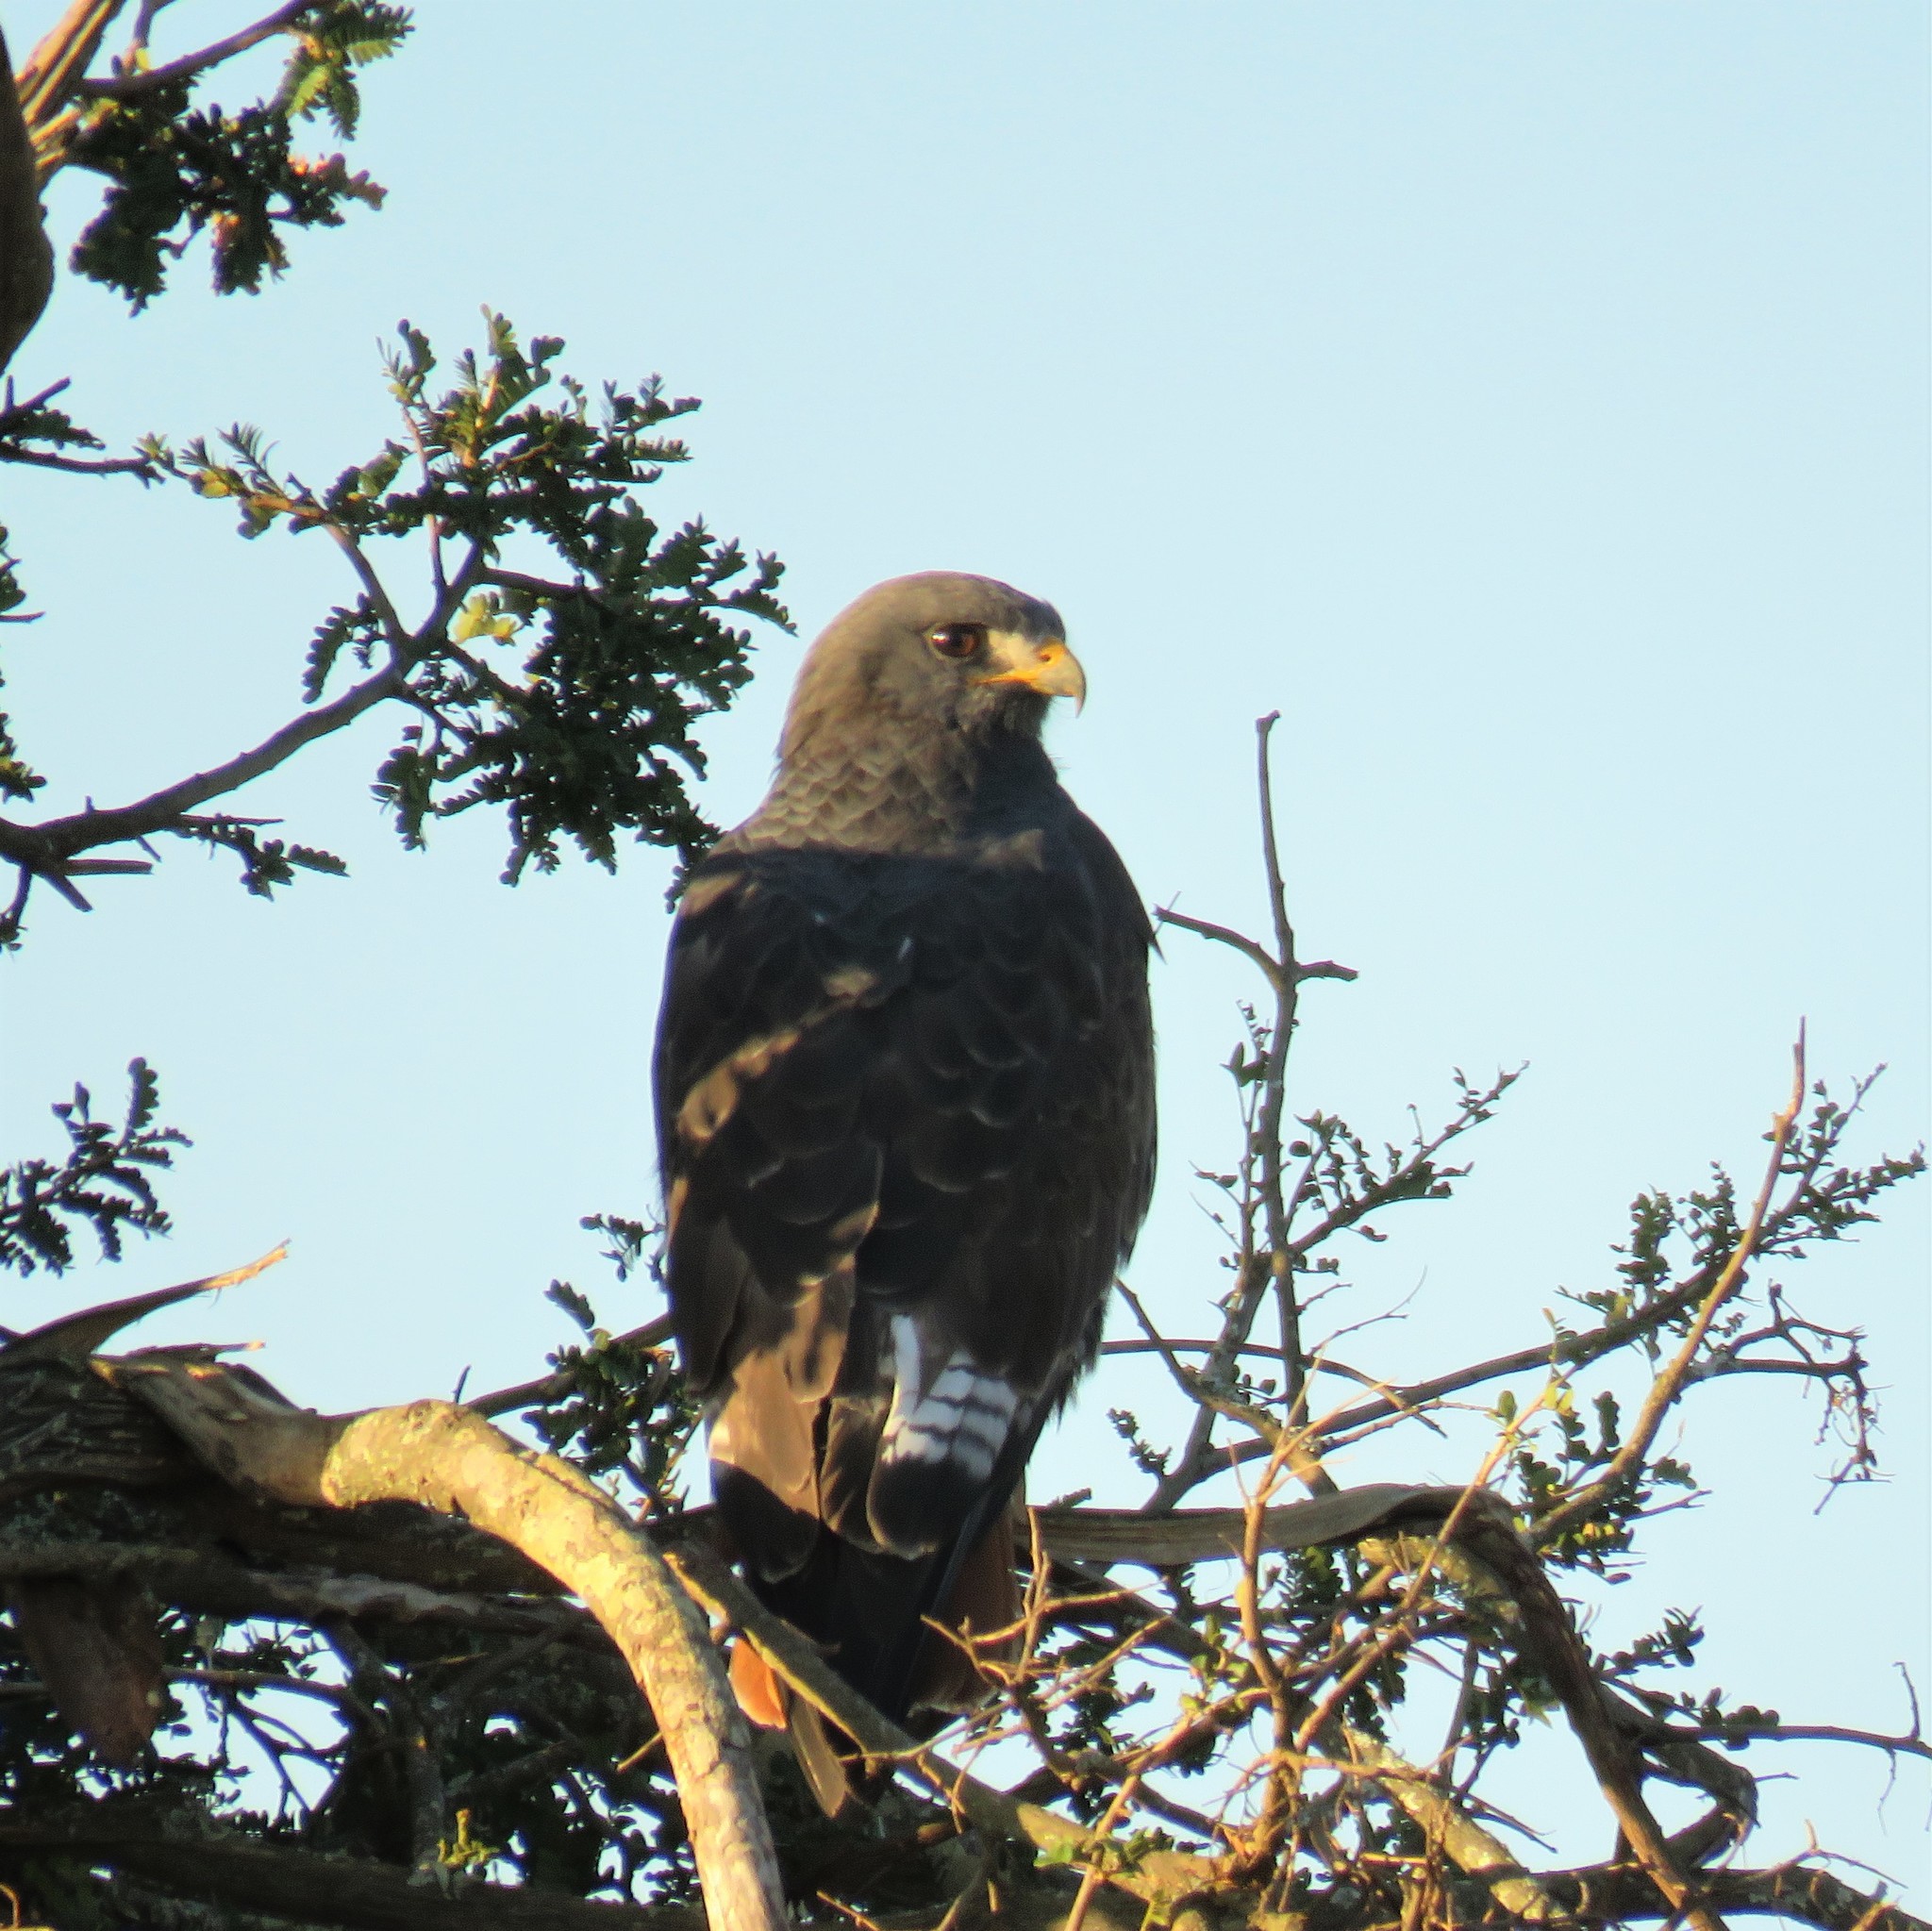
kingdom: Animalia
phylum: Chordata
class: Aves
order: Accipitriformes
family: Accipitridae
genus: Buteo
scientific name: Buteo rufofuscus
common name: Jackal buzzard
